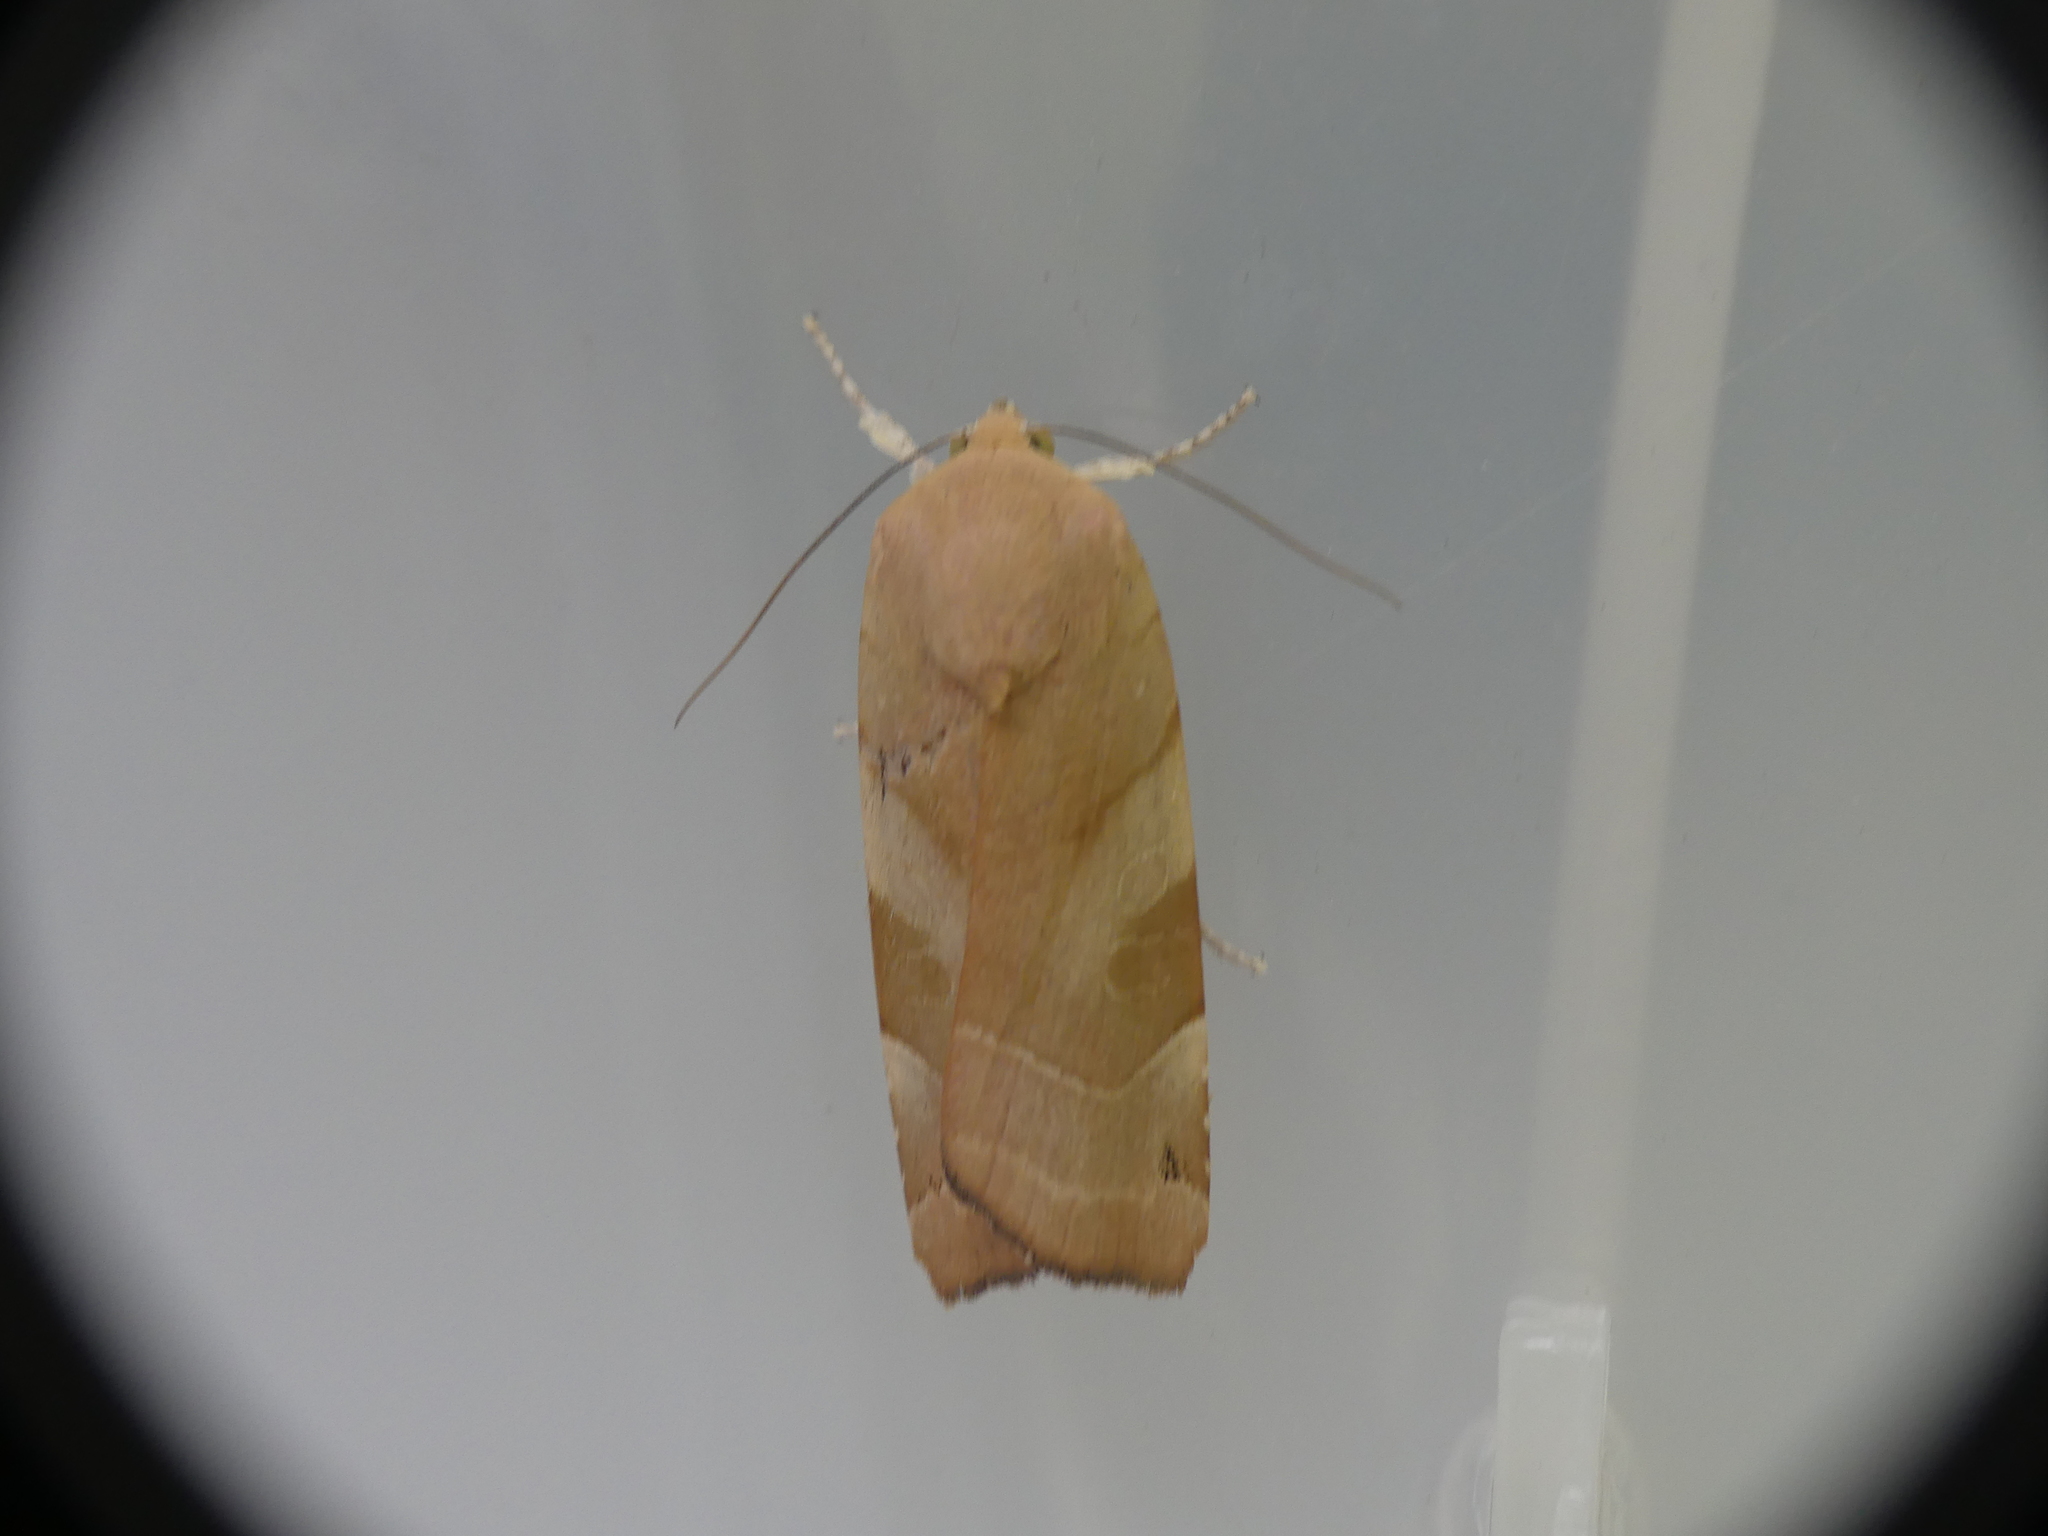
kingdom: Animalia
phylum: Arthropoda
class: Insecta
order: Lepidoptera
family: Noctuidae
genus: Noctua
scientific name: Noctua fimbriata
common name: Broad-bordered yellow underwing
